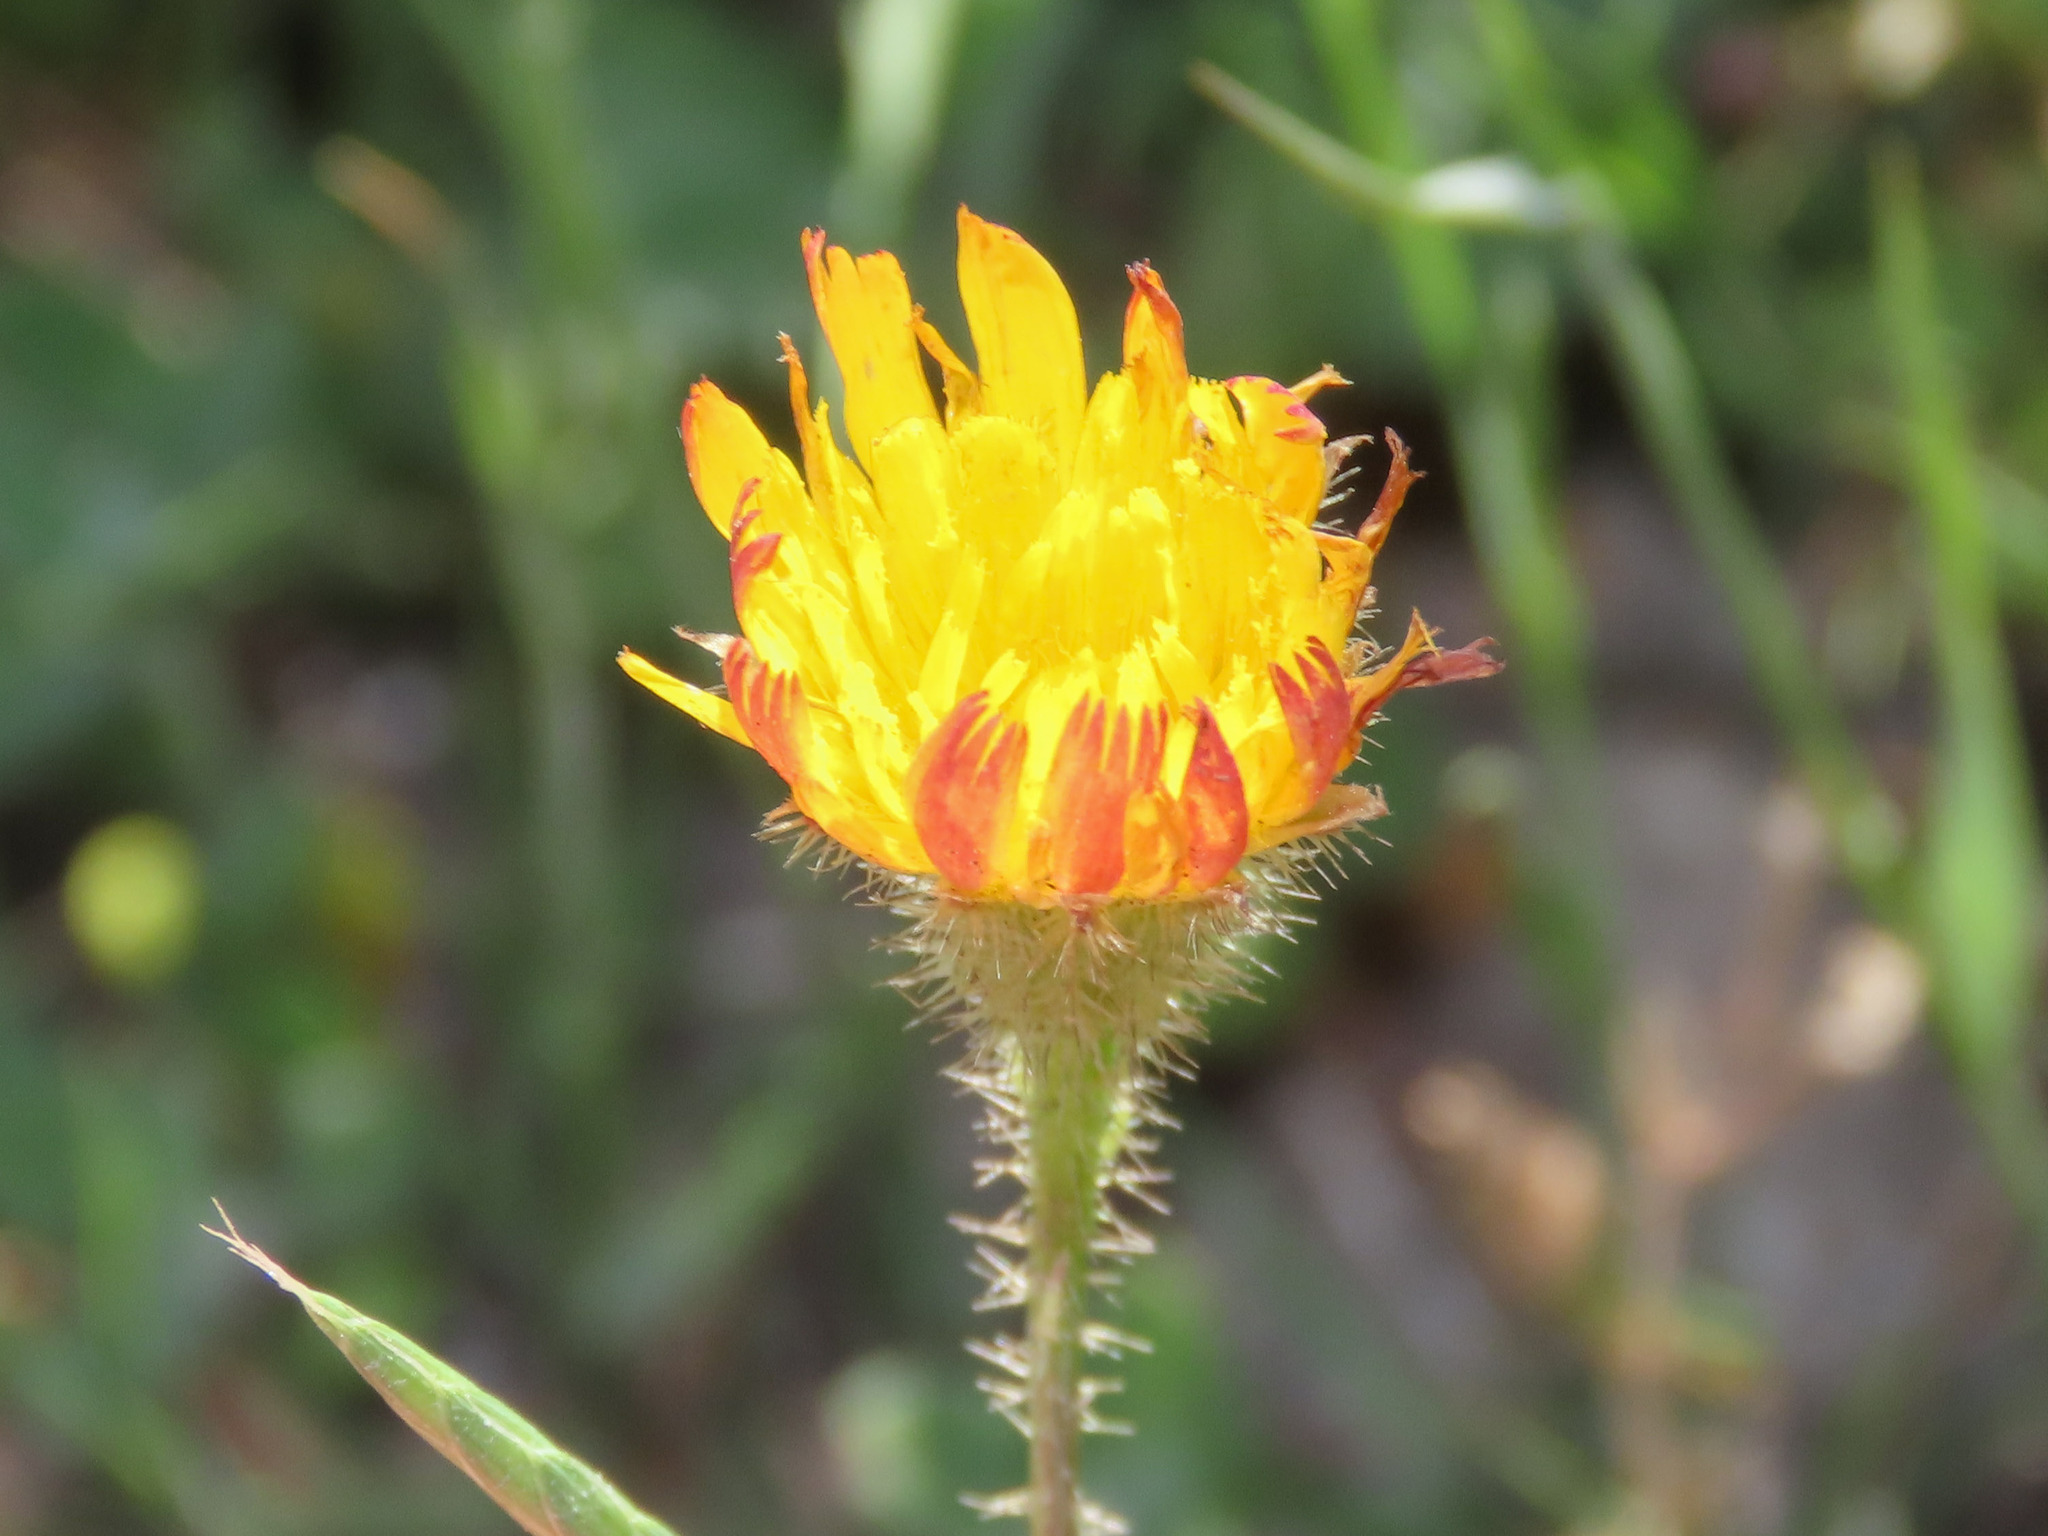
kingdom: Plantae
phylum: Tracheophyta
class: Magnoliopsida
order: Asterales
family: Asteraceae
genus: Achyrophorus
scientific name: Achyrophorus valdesii
